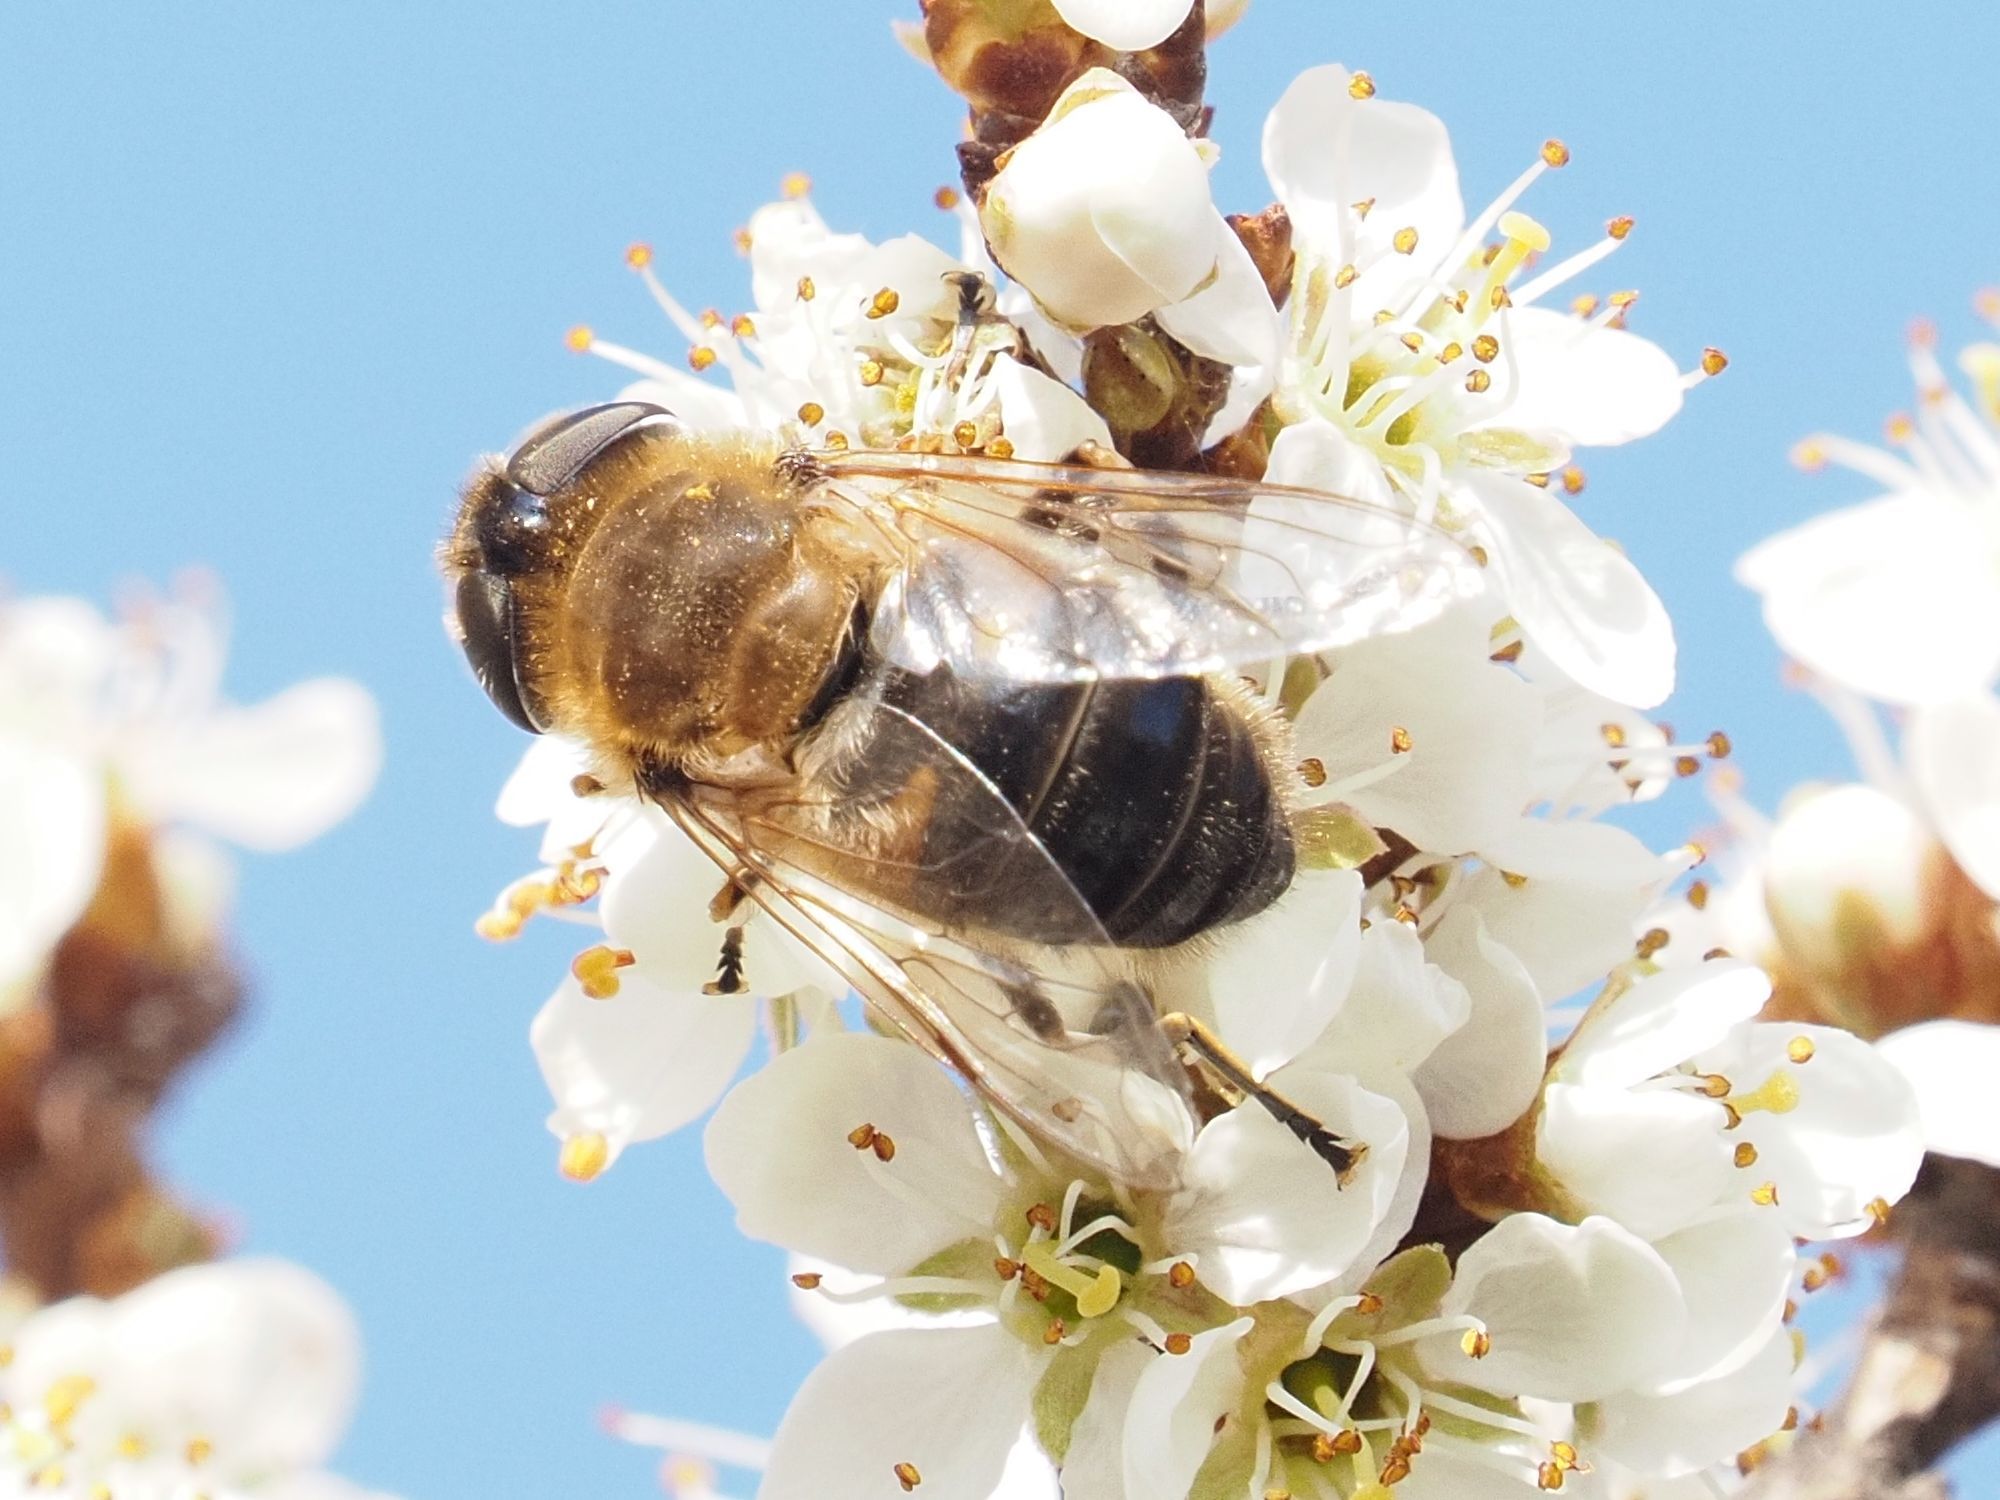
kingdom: Animalia
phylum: Arthropoda
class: Insecta
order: Diptera
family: Syrphidae
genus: Eristalis
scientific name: Eristalis pertinax
